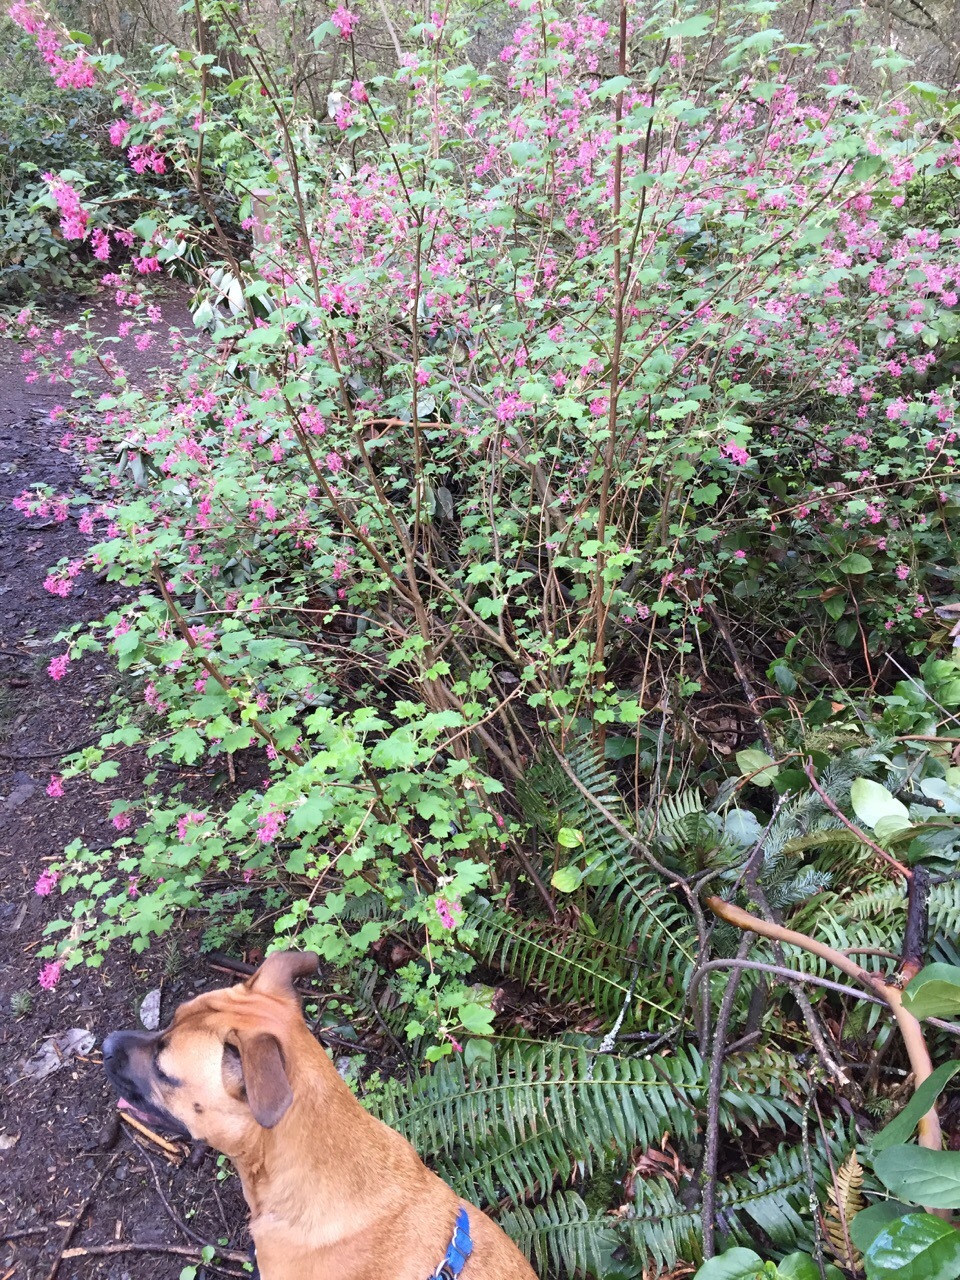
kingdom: Plantae
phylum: Tracheophyta
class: Magnoliopsida
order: Saxifragales
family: Grossulariaceae
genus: Ribes
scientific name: Ribes sanguineum
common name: Flowering currant
